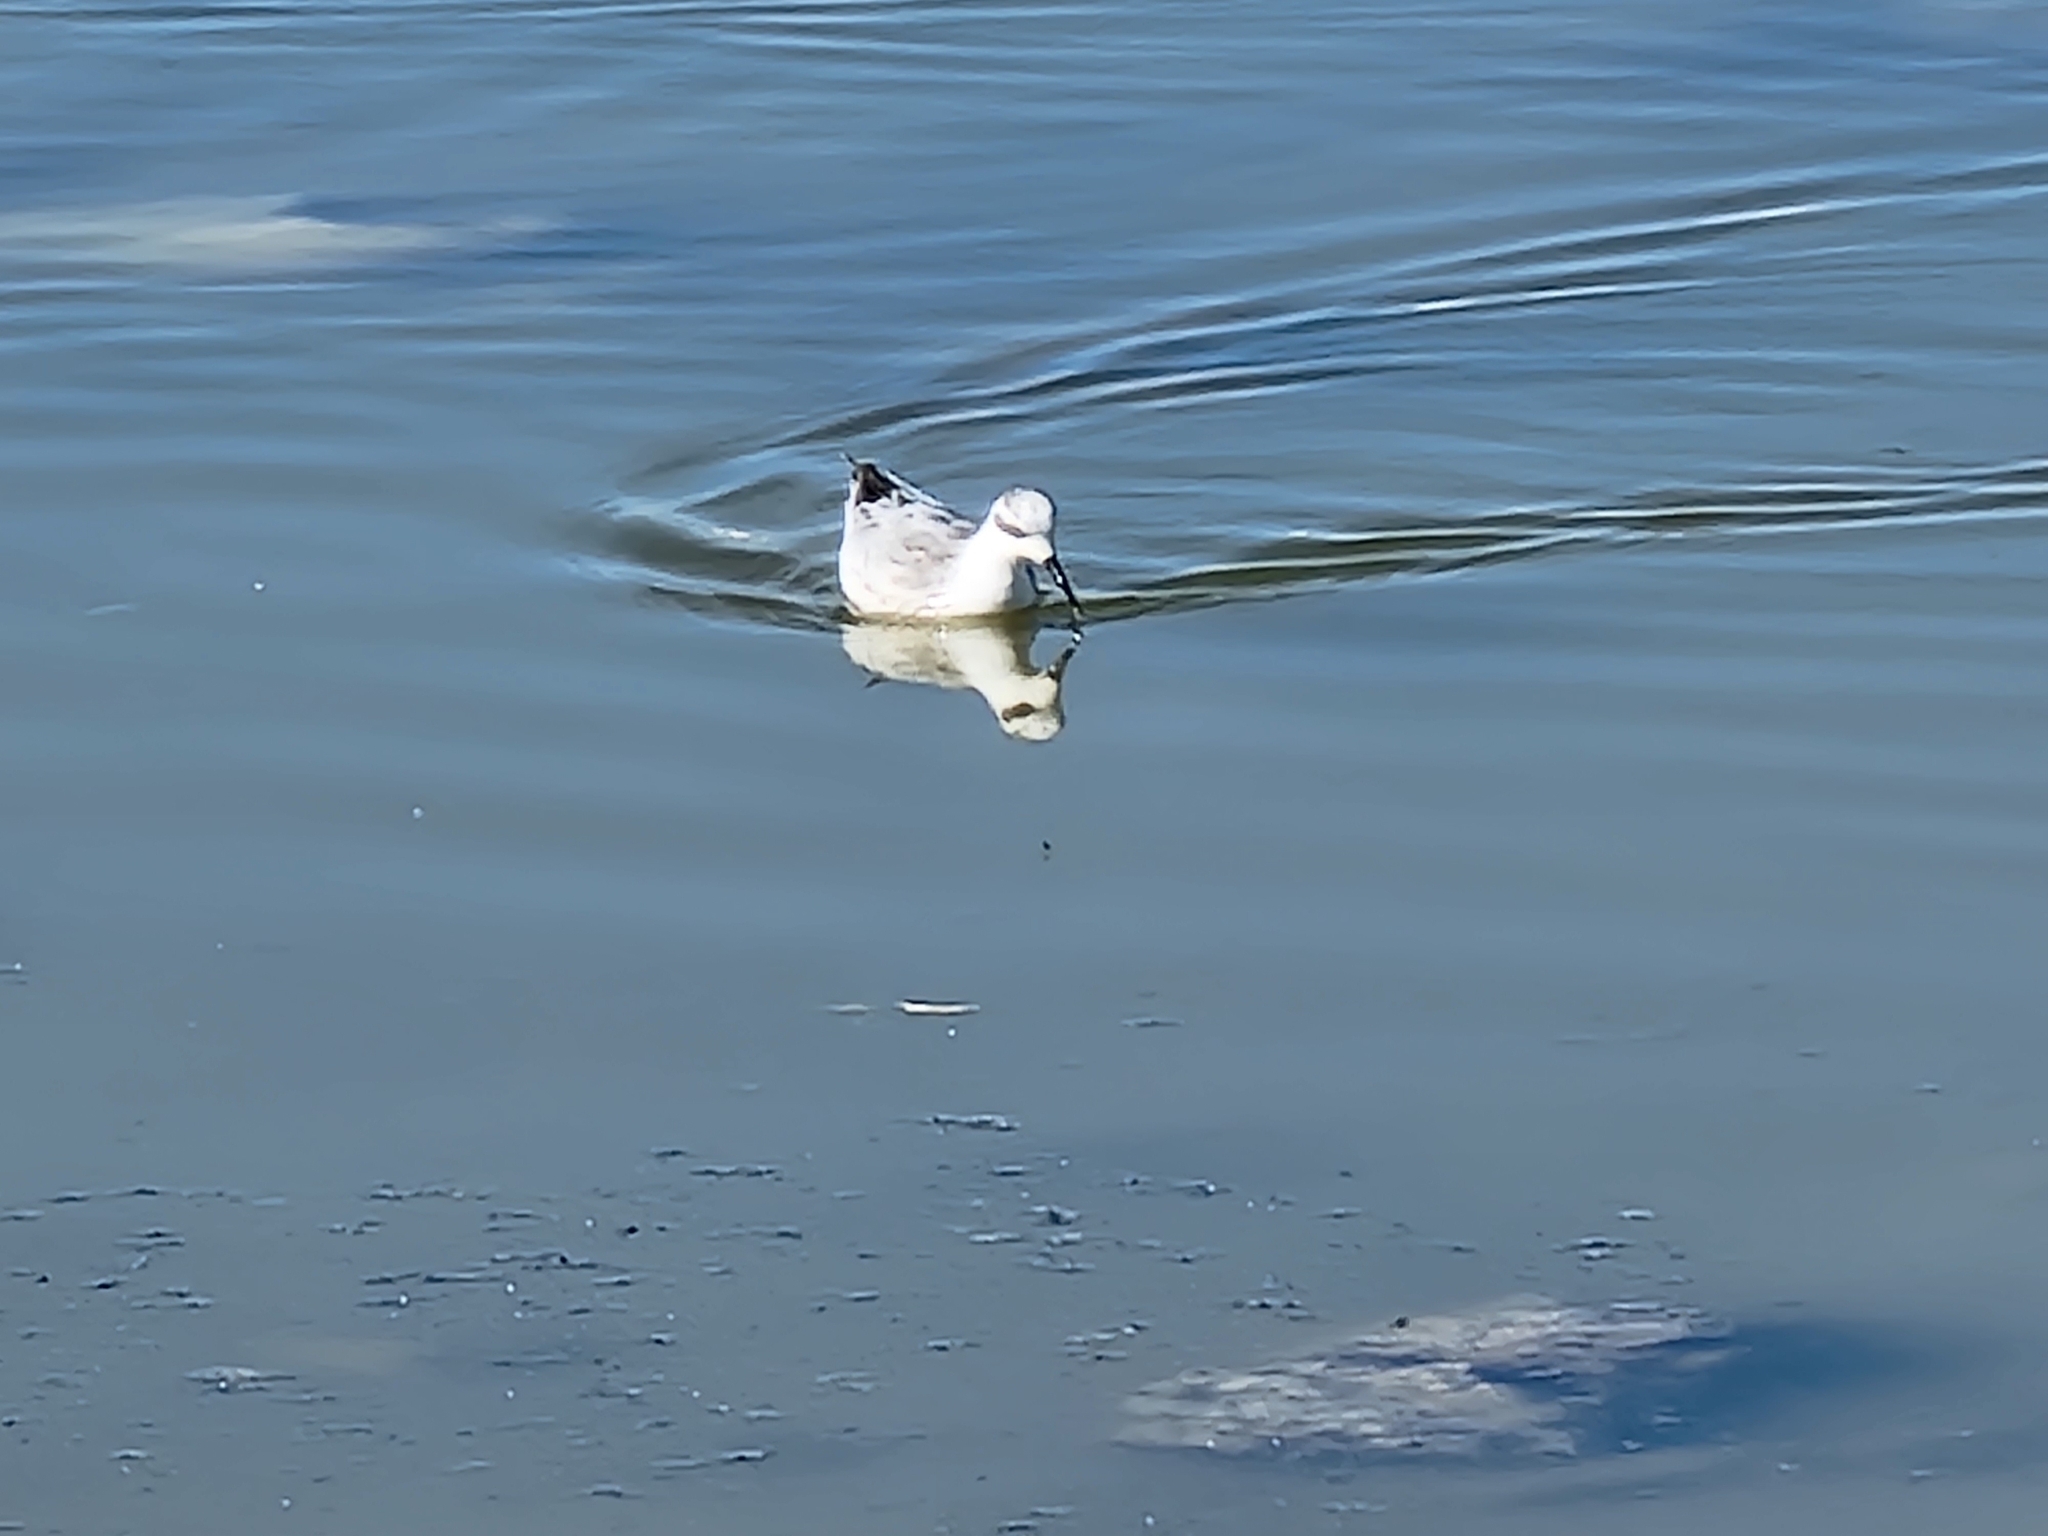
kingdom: Animalia
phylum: Chordata
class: Aves
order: Charadriiformes
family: Scolopacidae
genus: Phalaropus
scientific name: Phalaropus lobatus
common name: Red-necked phalarope
